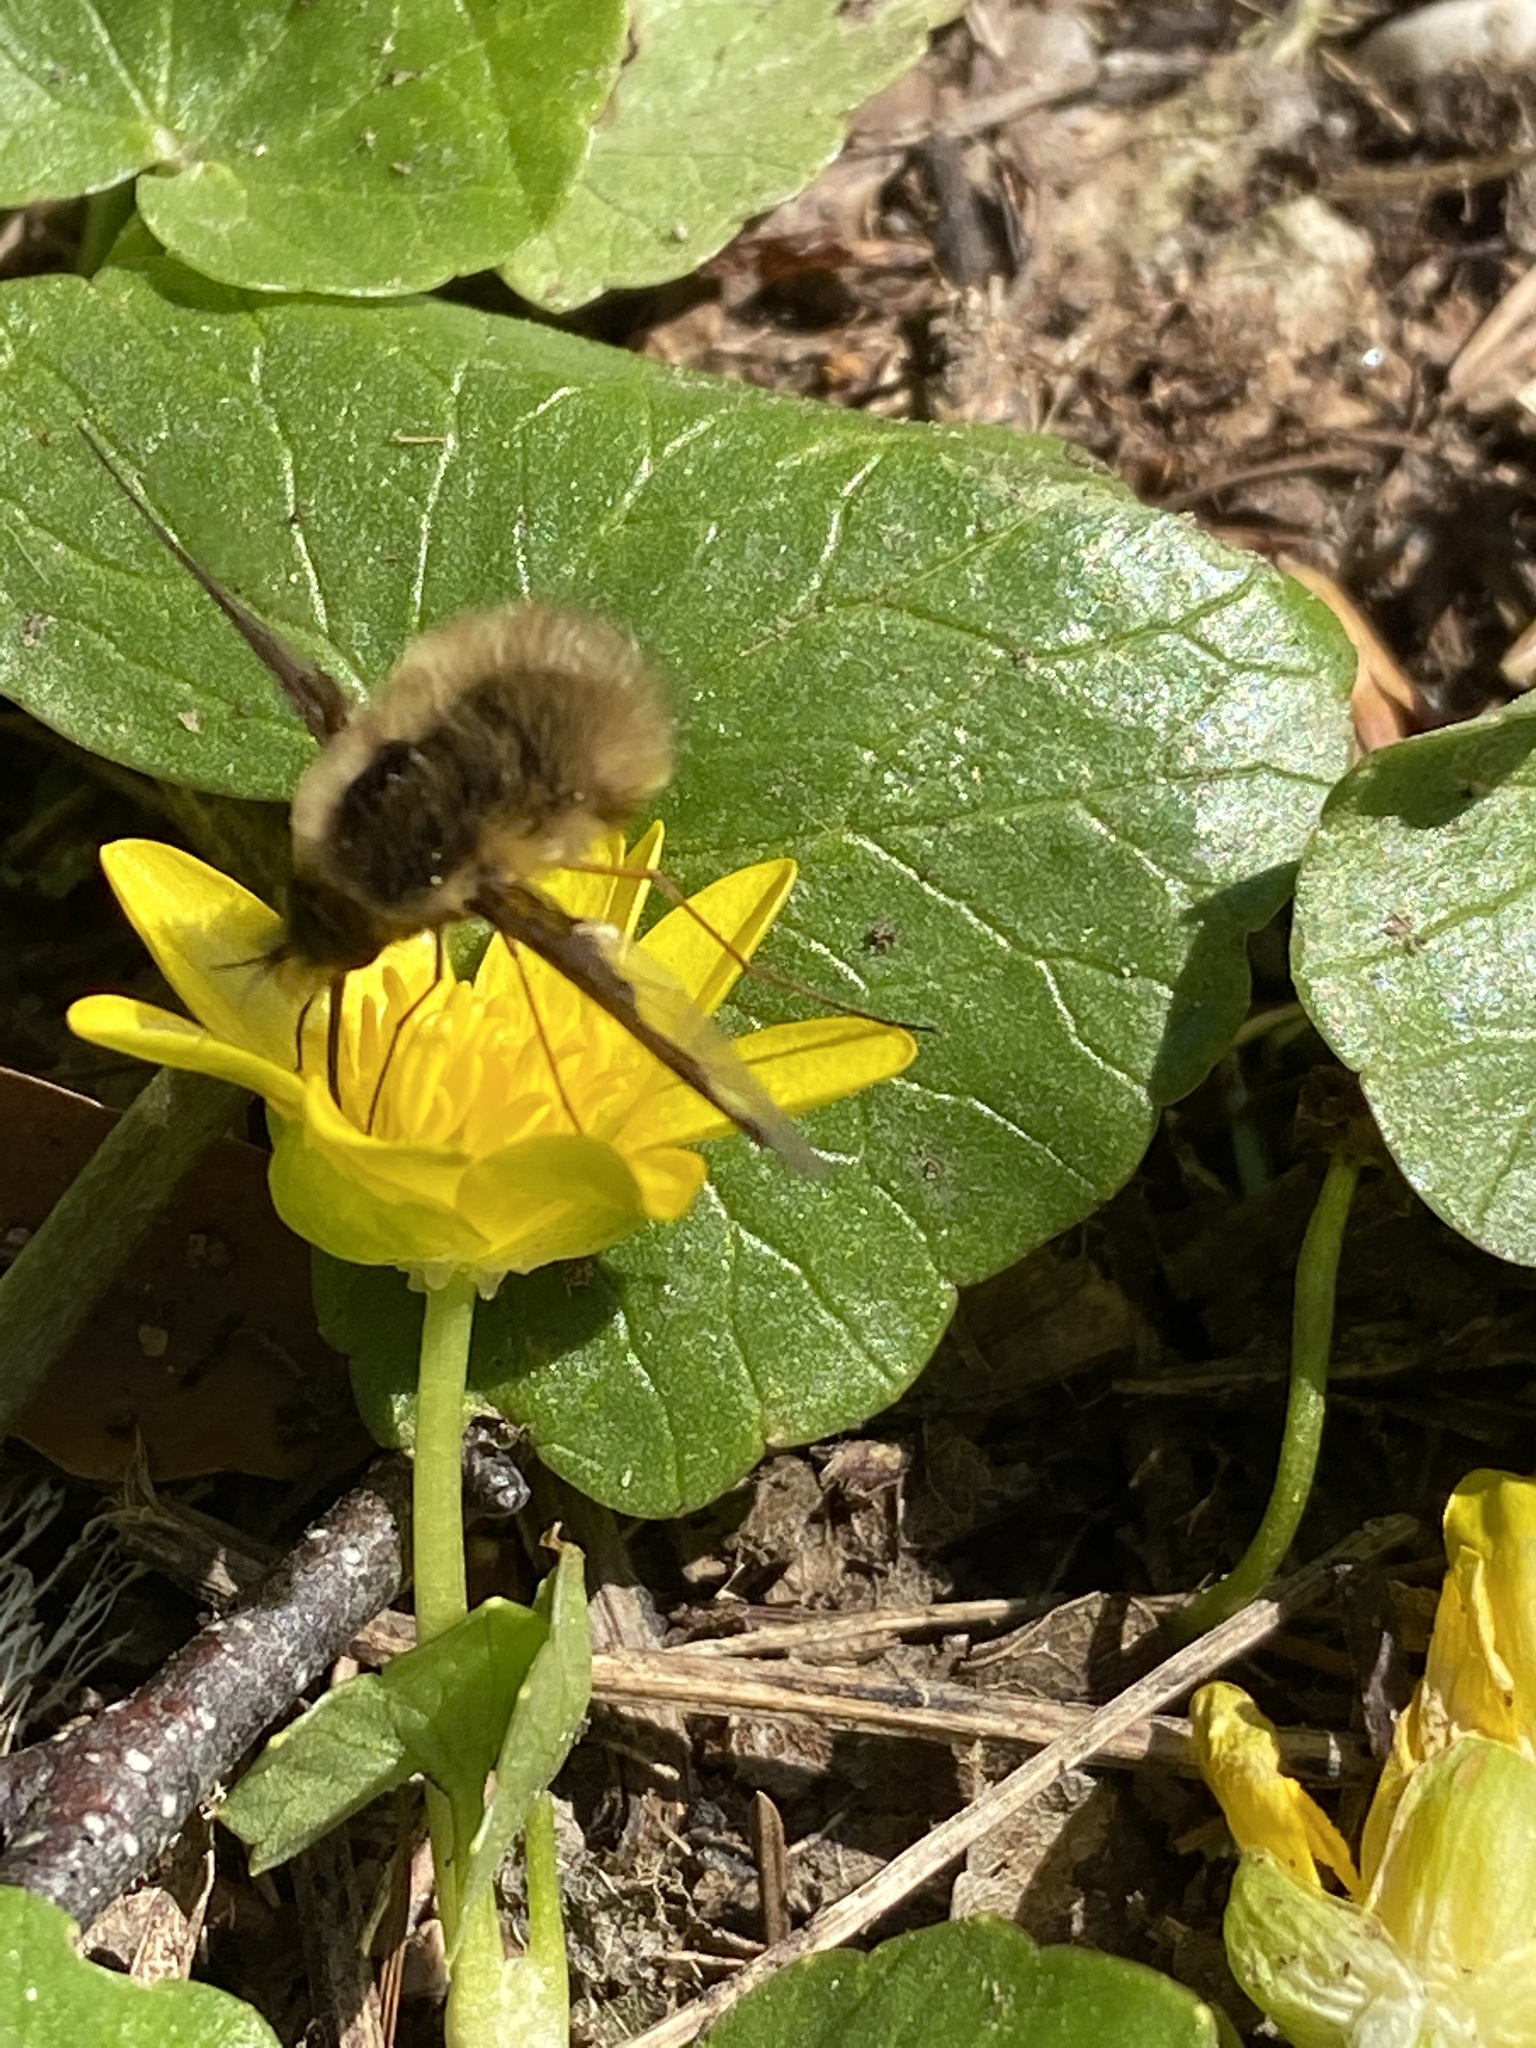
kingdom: Animalia
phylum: Arthropoda
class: Insecta
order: Diptera
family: Bombyliidae
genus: Bombylius
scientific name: Bombylius major
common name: Bee fly
